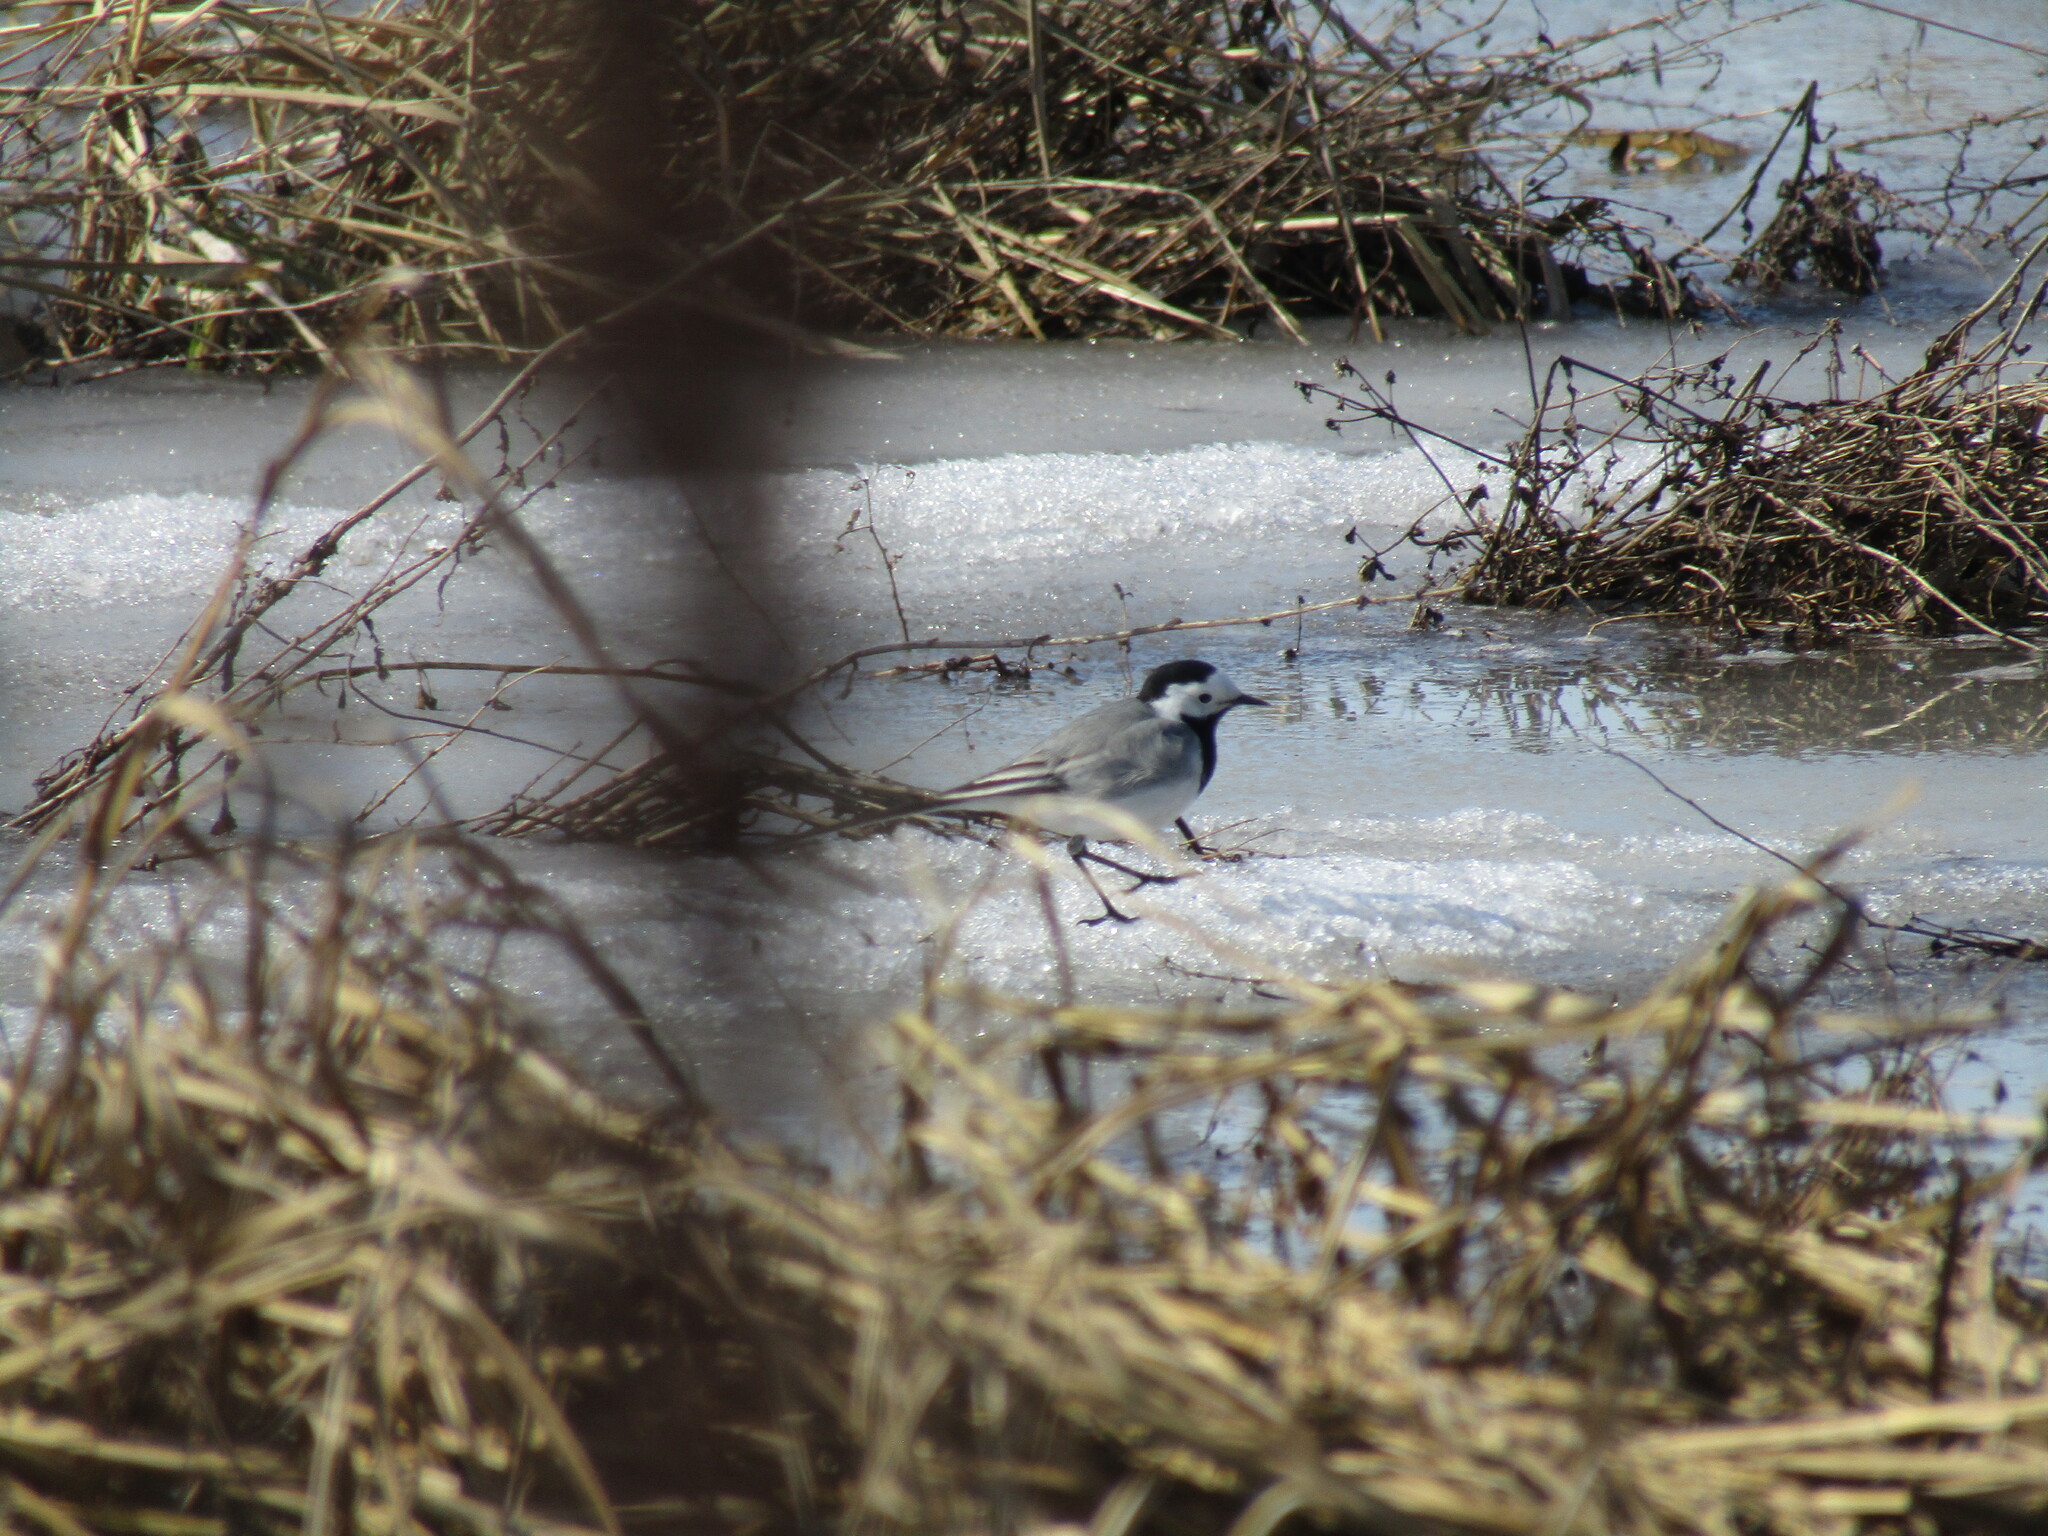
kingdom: Animalia
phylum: Chordata
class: Aves
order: Passeriformes
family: Motacillidae
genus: Motacilla
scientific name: Motacilla alba
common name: White wagtail
